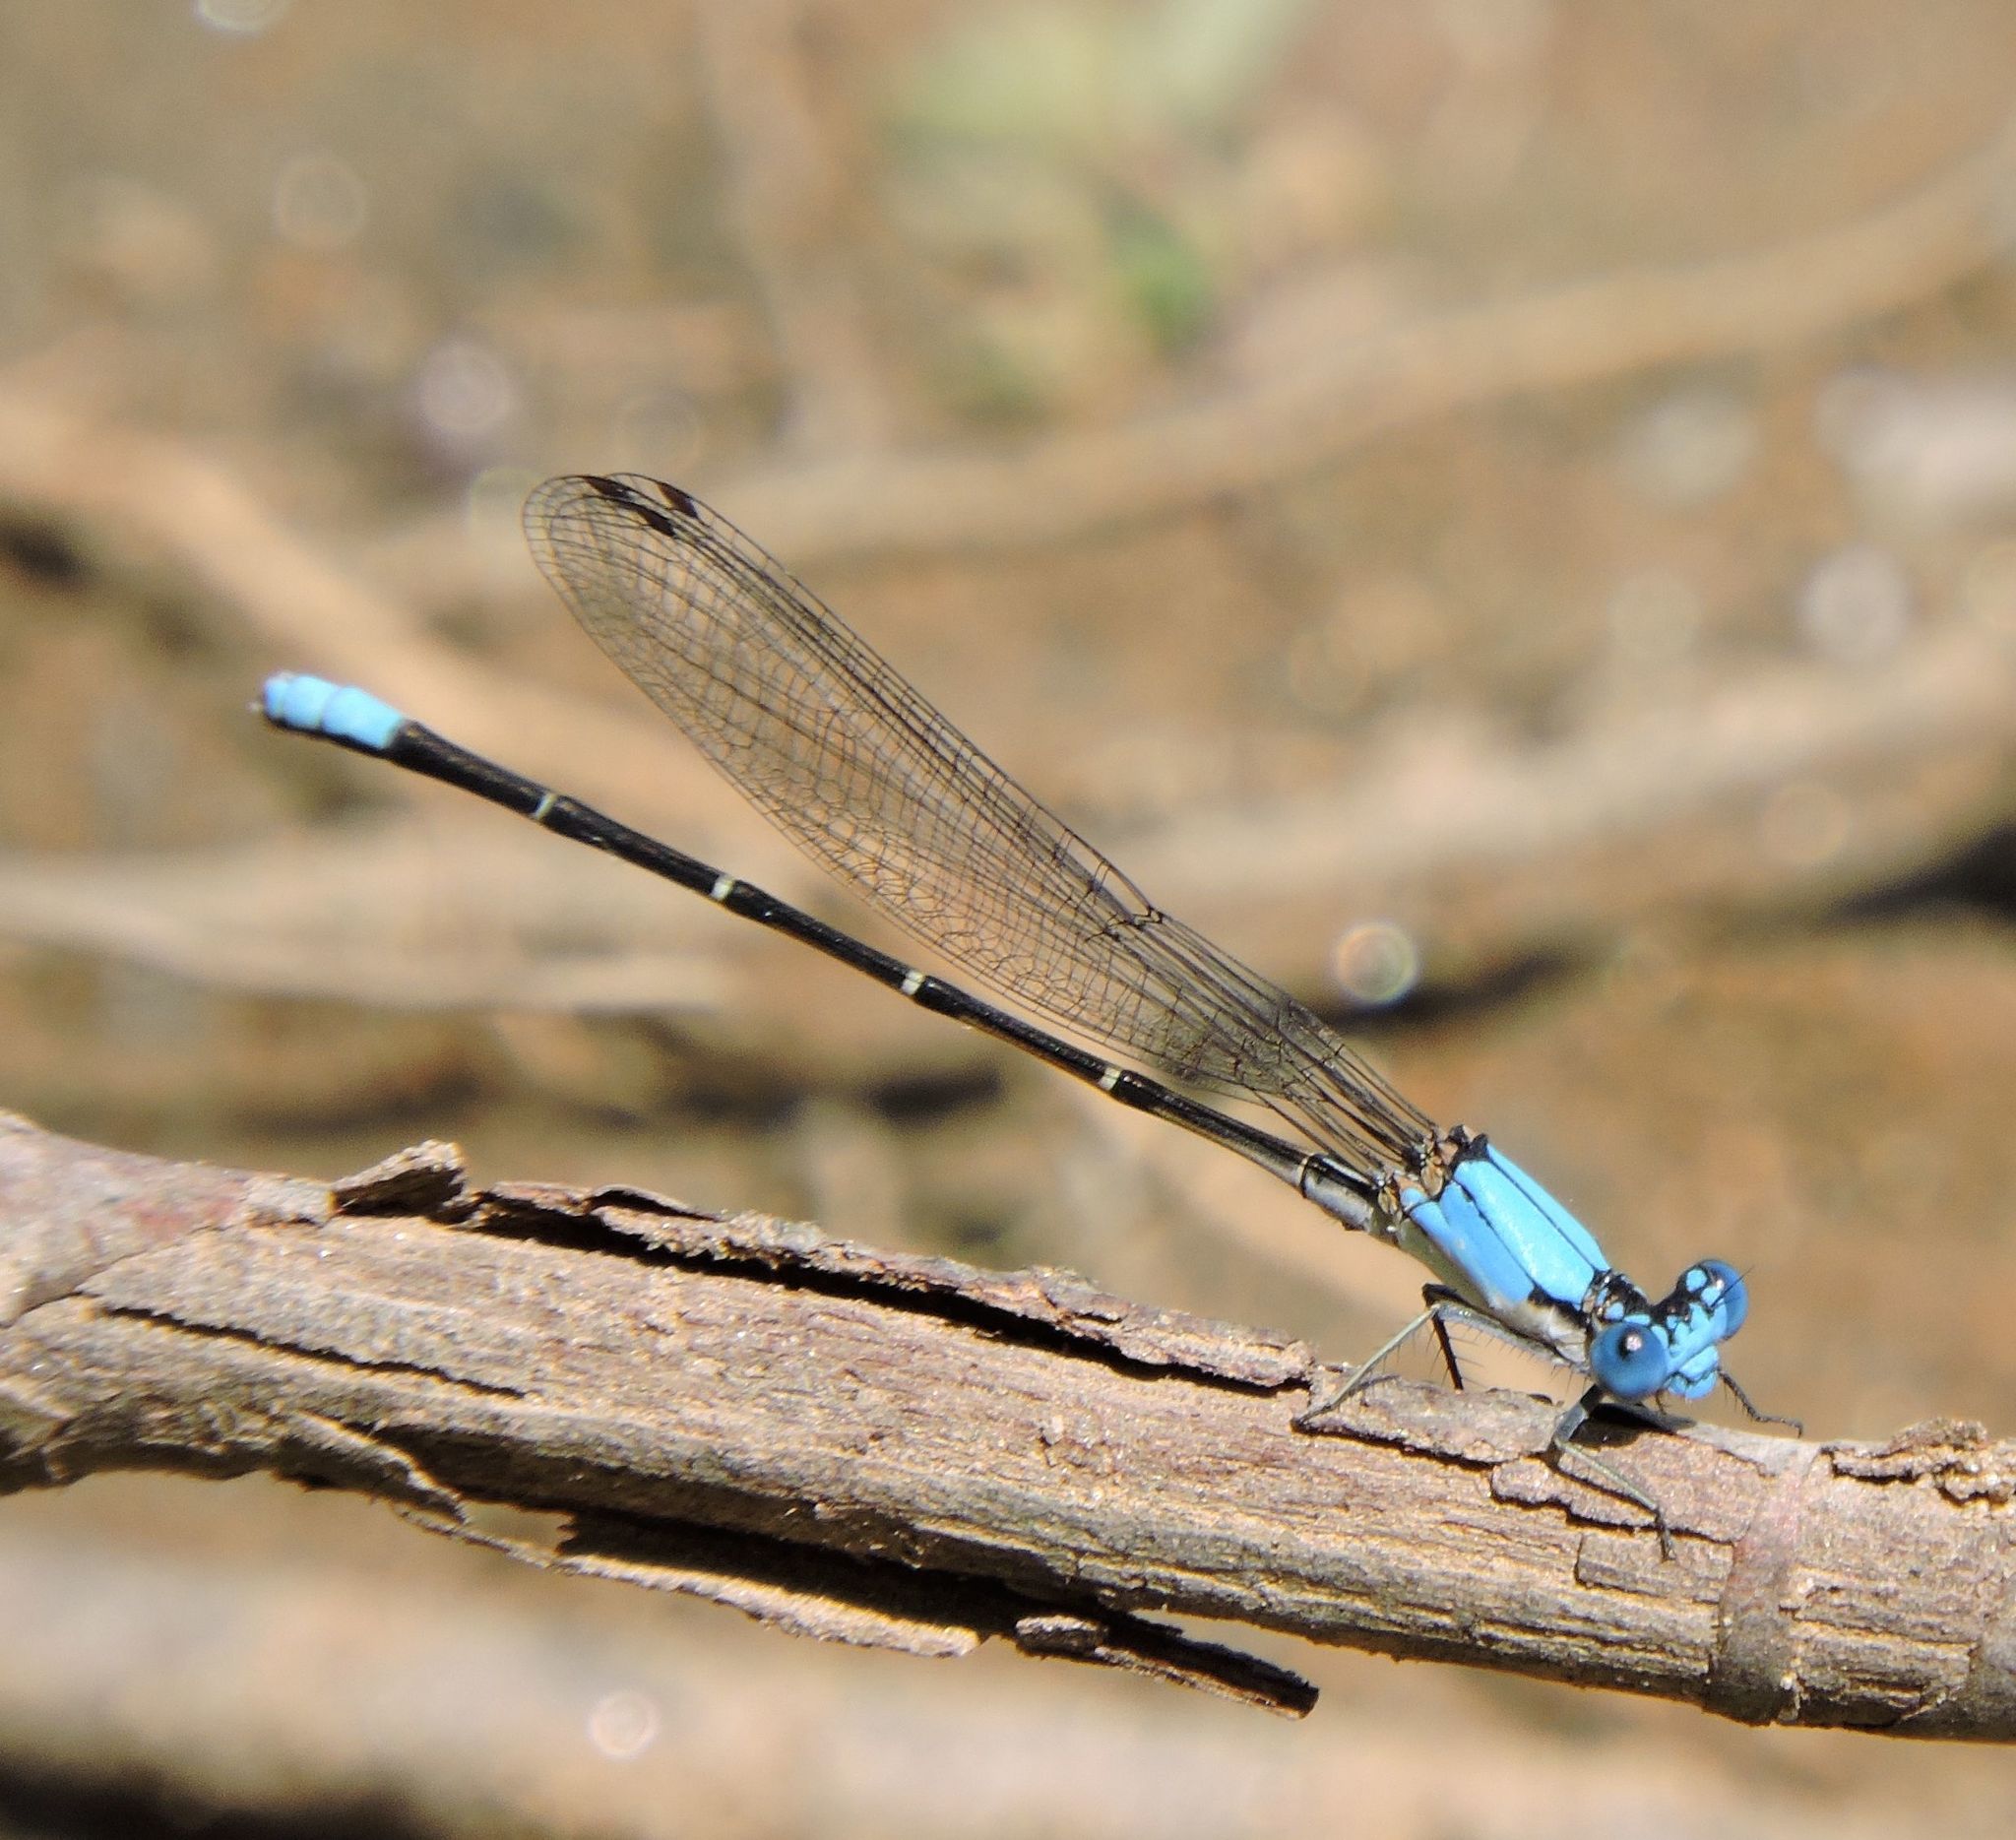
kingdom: Animalia
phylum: Arthropoda
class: Insecta
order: Odonata
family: Coenagrionidae
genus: Argia
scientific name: Argia apicalis
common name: Blue-fronted dancer
